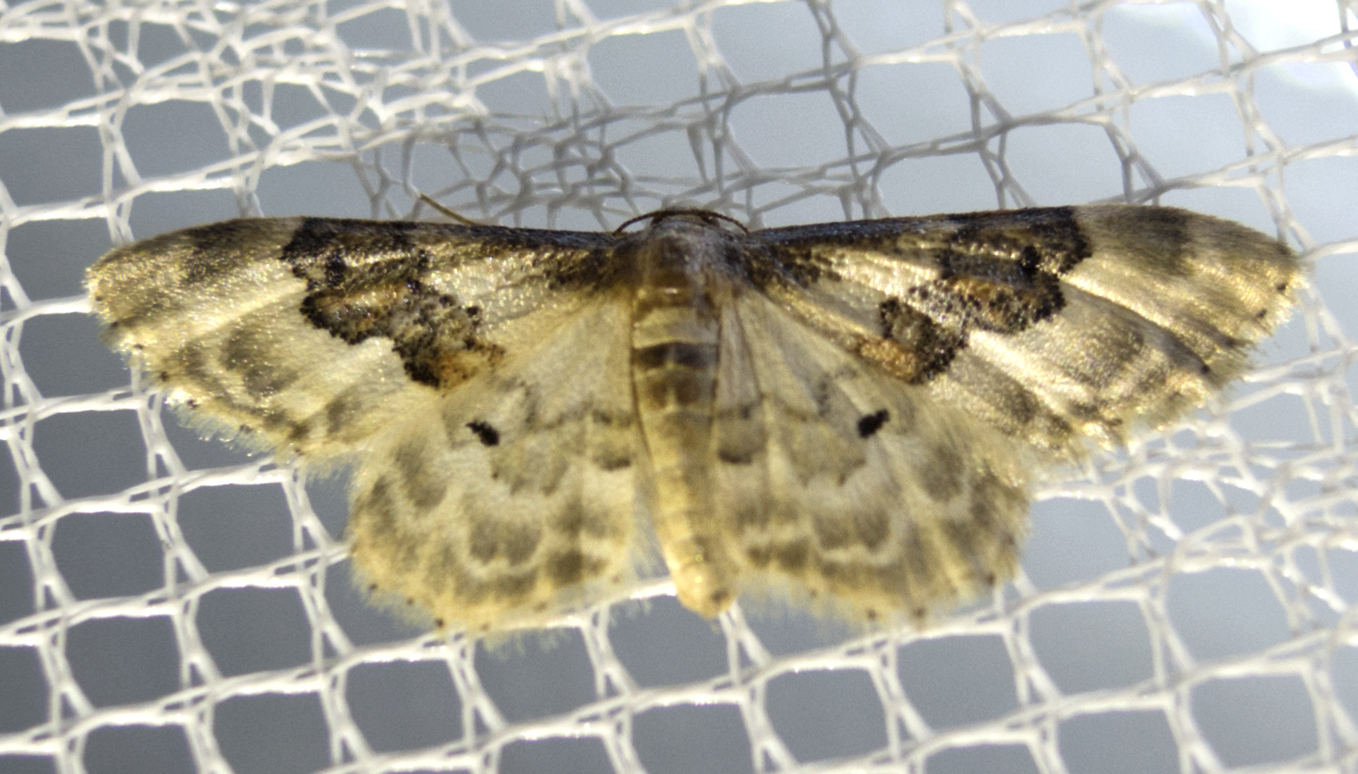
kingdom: Animalia
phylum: Arthropoda
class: Insecta
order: Lepidoptera
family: Geometridae
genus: Idaea
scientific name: Idaea rusticata
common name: Least carpet
